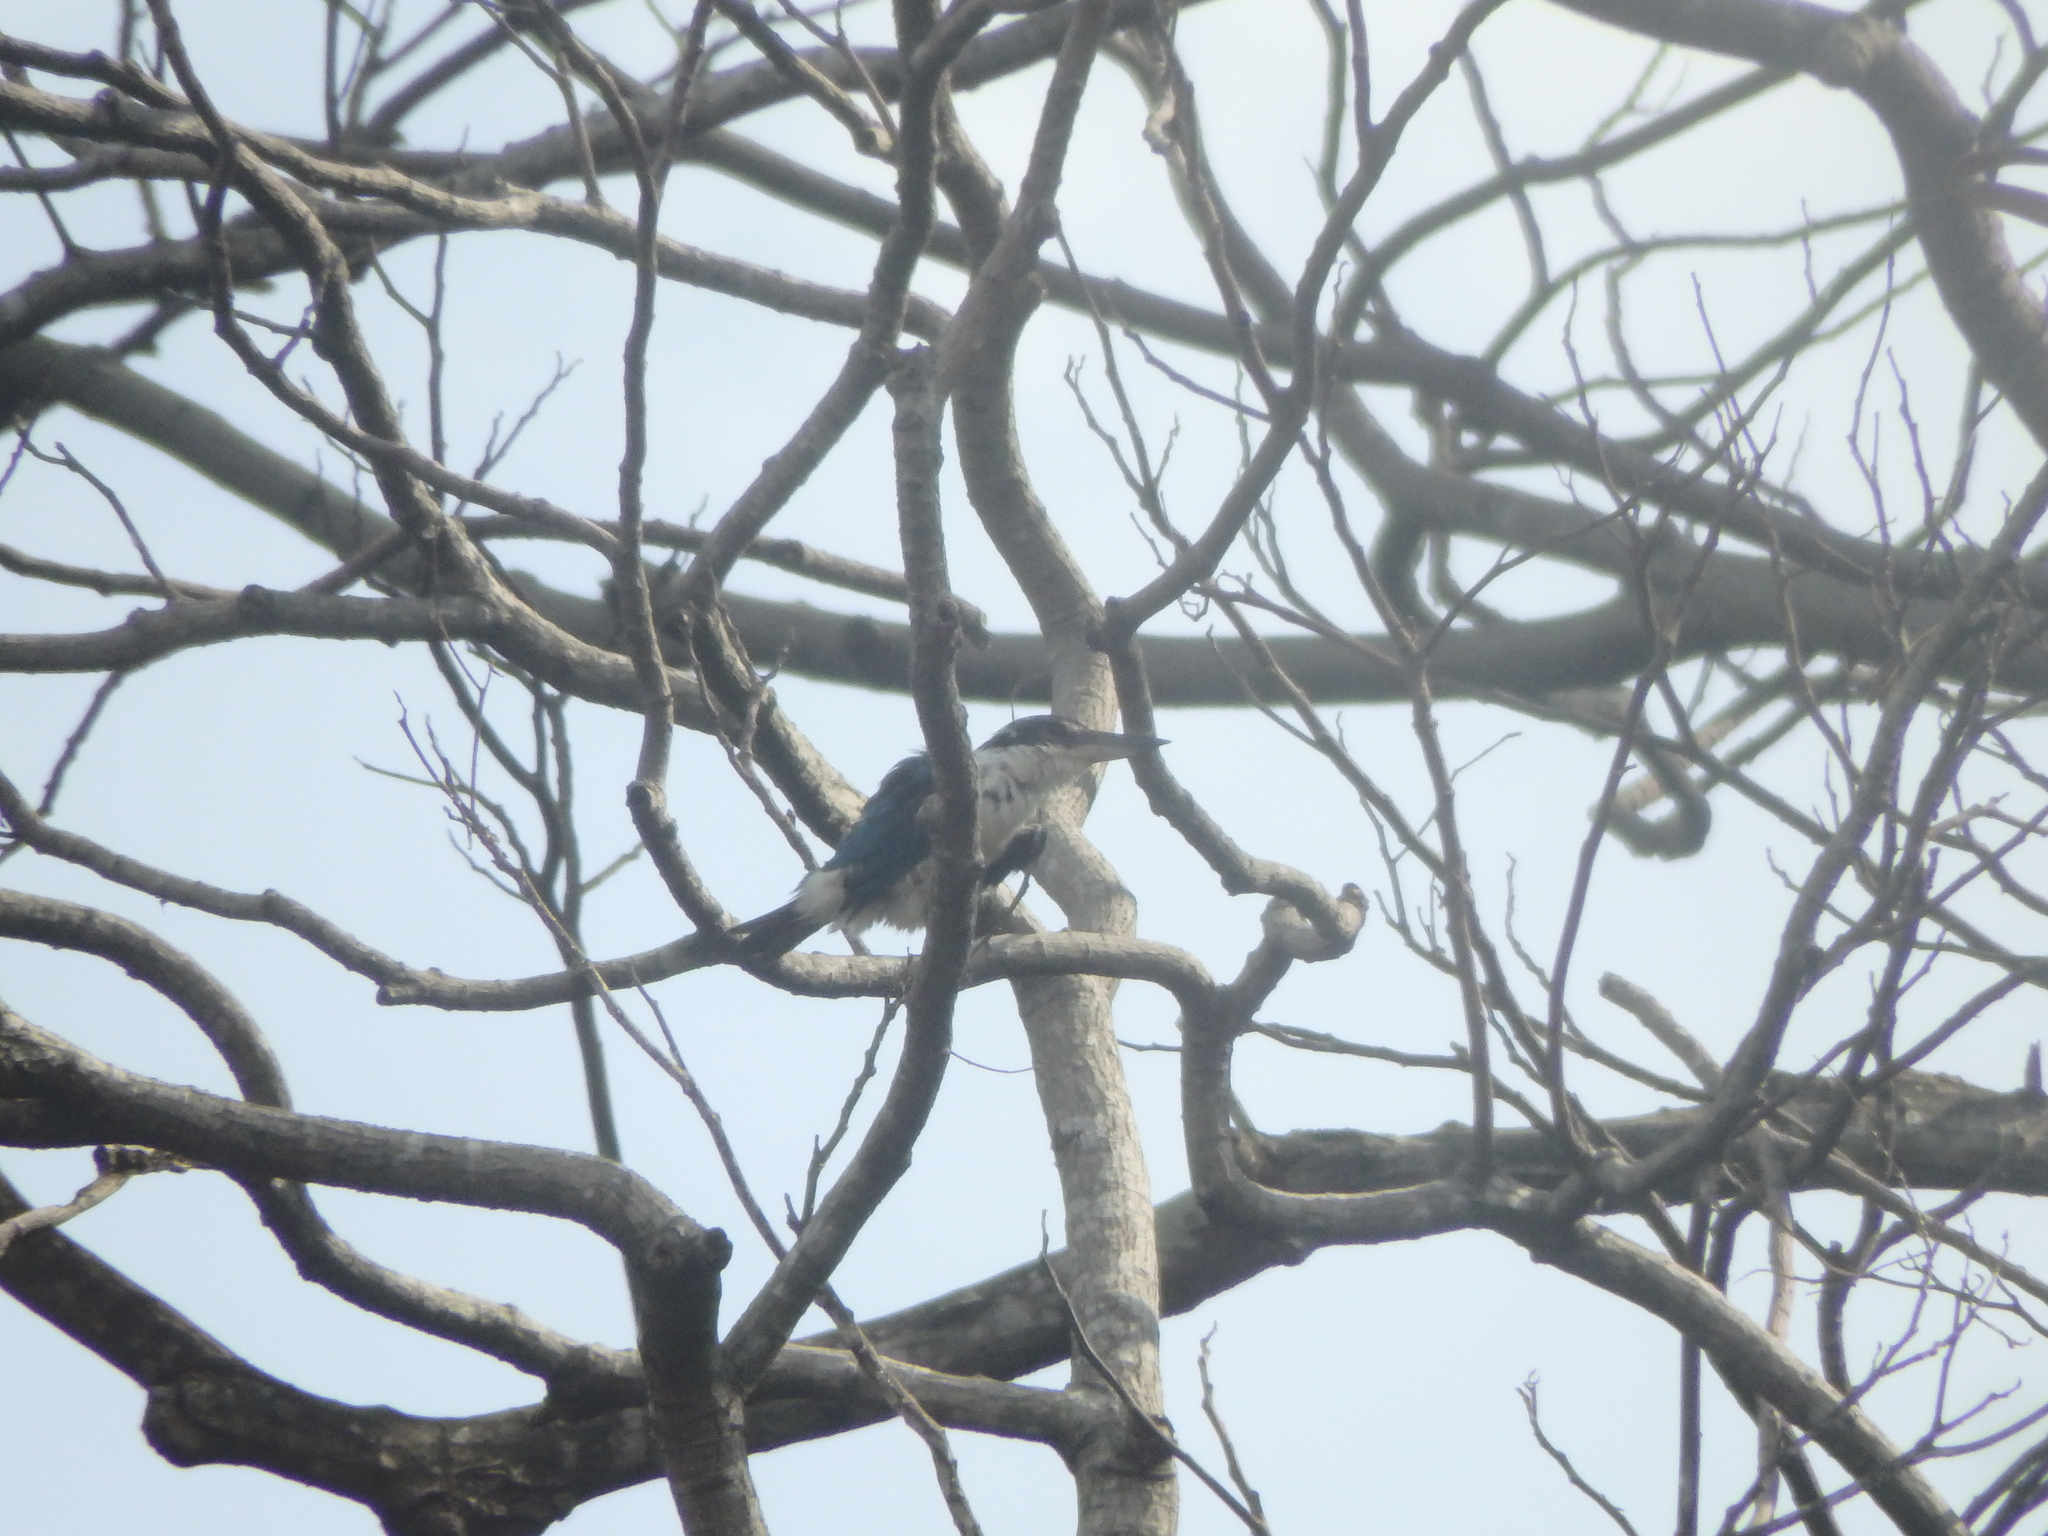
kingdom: Animalia
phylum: Chordata
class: Aves
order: Coraciiformes
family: Alcedinidae
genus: Todiramphus
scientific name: Todiramphus chloris
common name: Collared kingfisher
